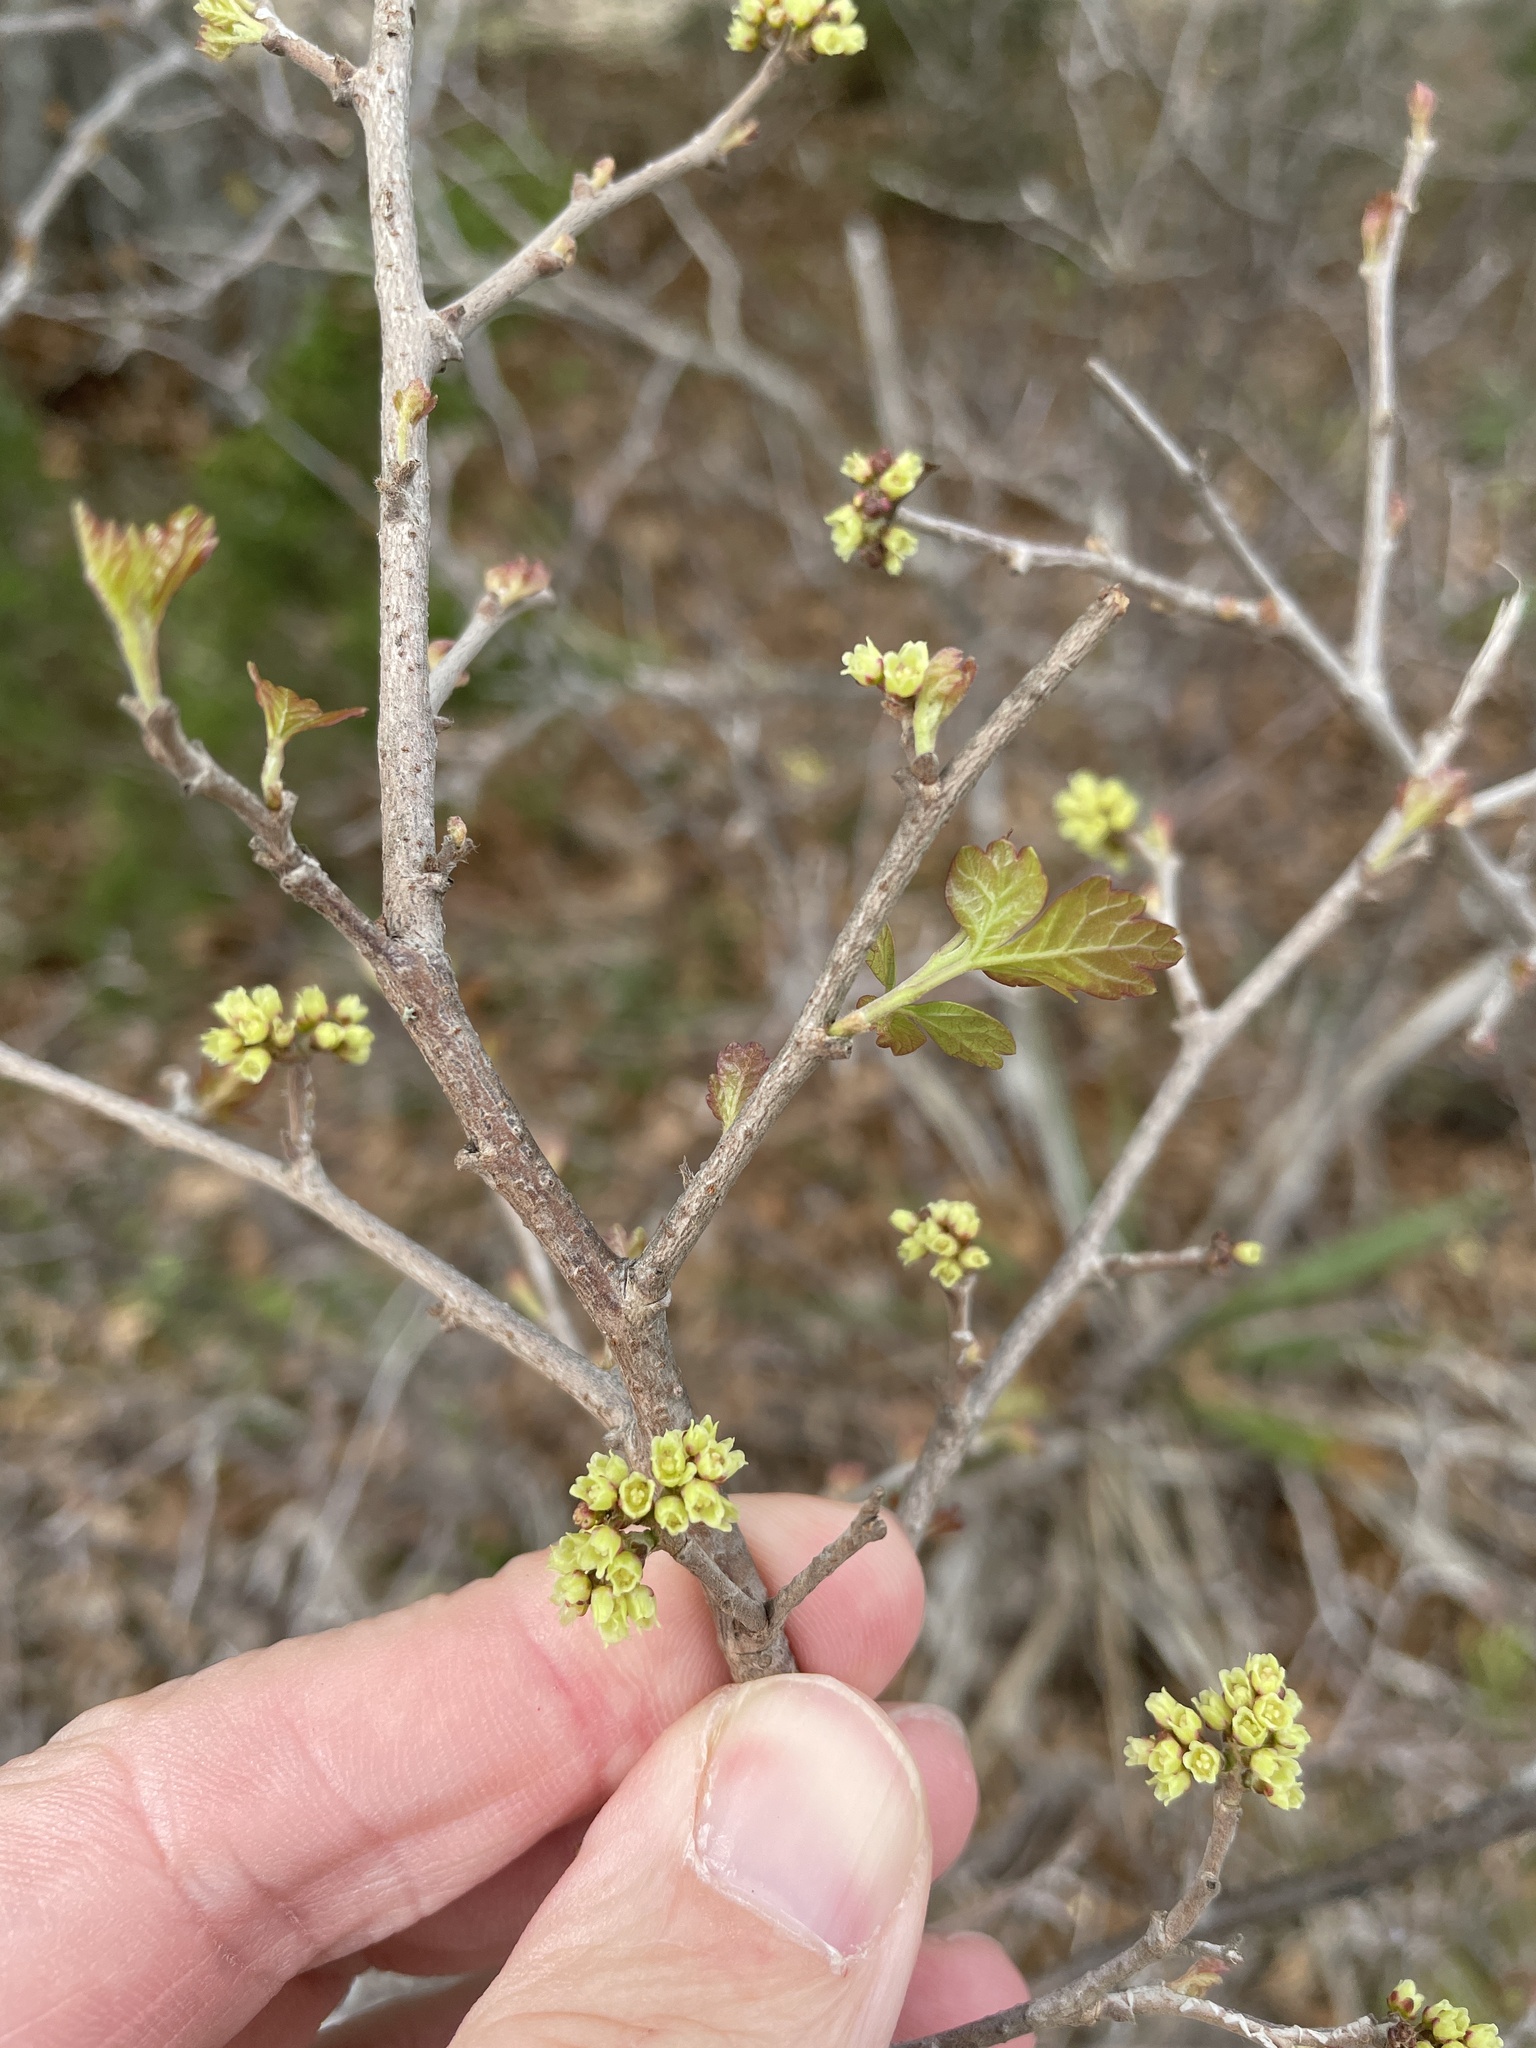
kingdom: Plantae
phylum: Tracheophyta
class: Magnoliopsida
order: Sapindales
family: Anacardiaceae
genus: Rhus
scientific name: Rhus aromatica
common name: Aromatic sumac
